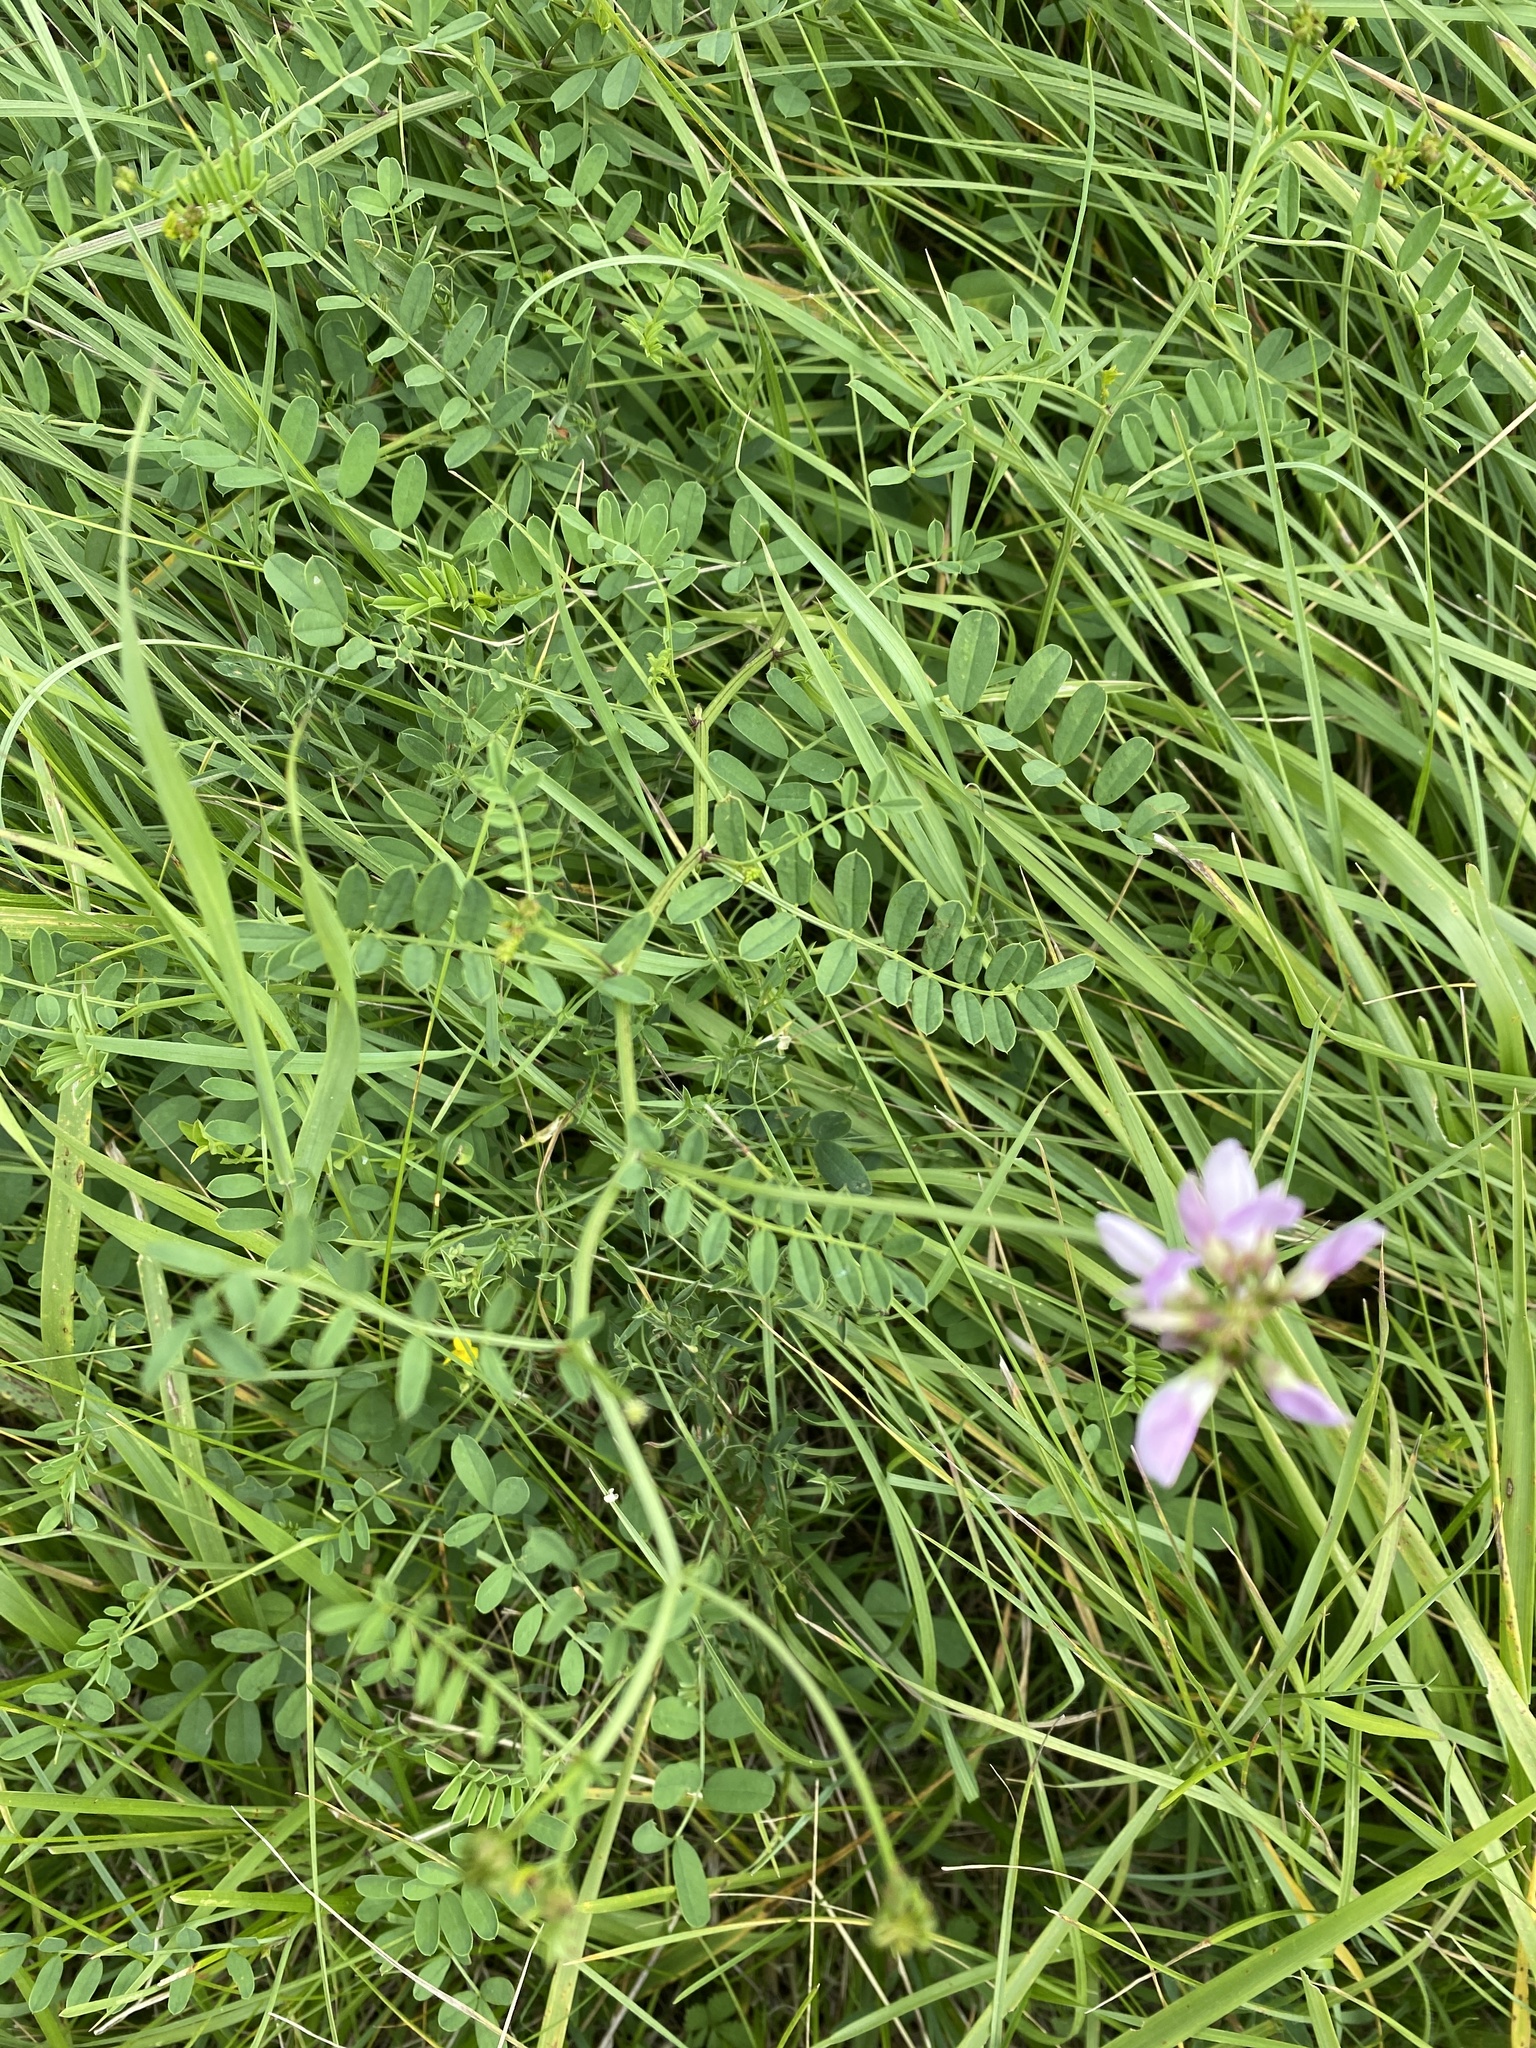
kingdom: Plantae
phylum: Tracheophyta
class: Magnoliopsida
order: Fabales
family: Fabaceae
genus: Coronilla
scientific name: Coronilla varia
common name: Crownvetch
